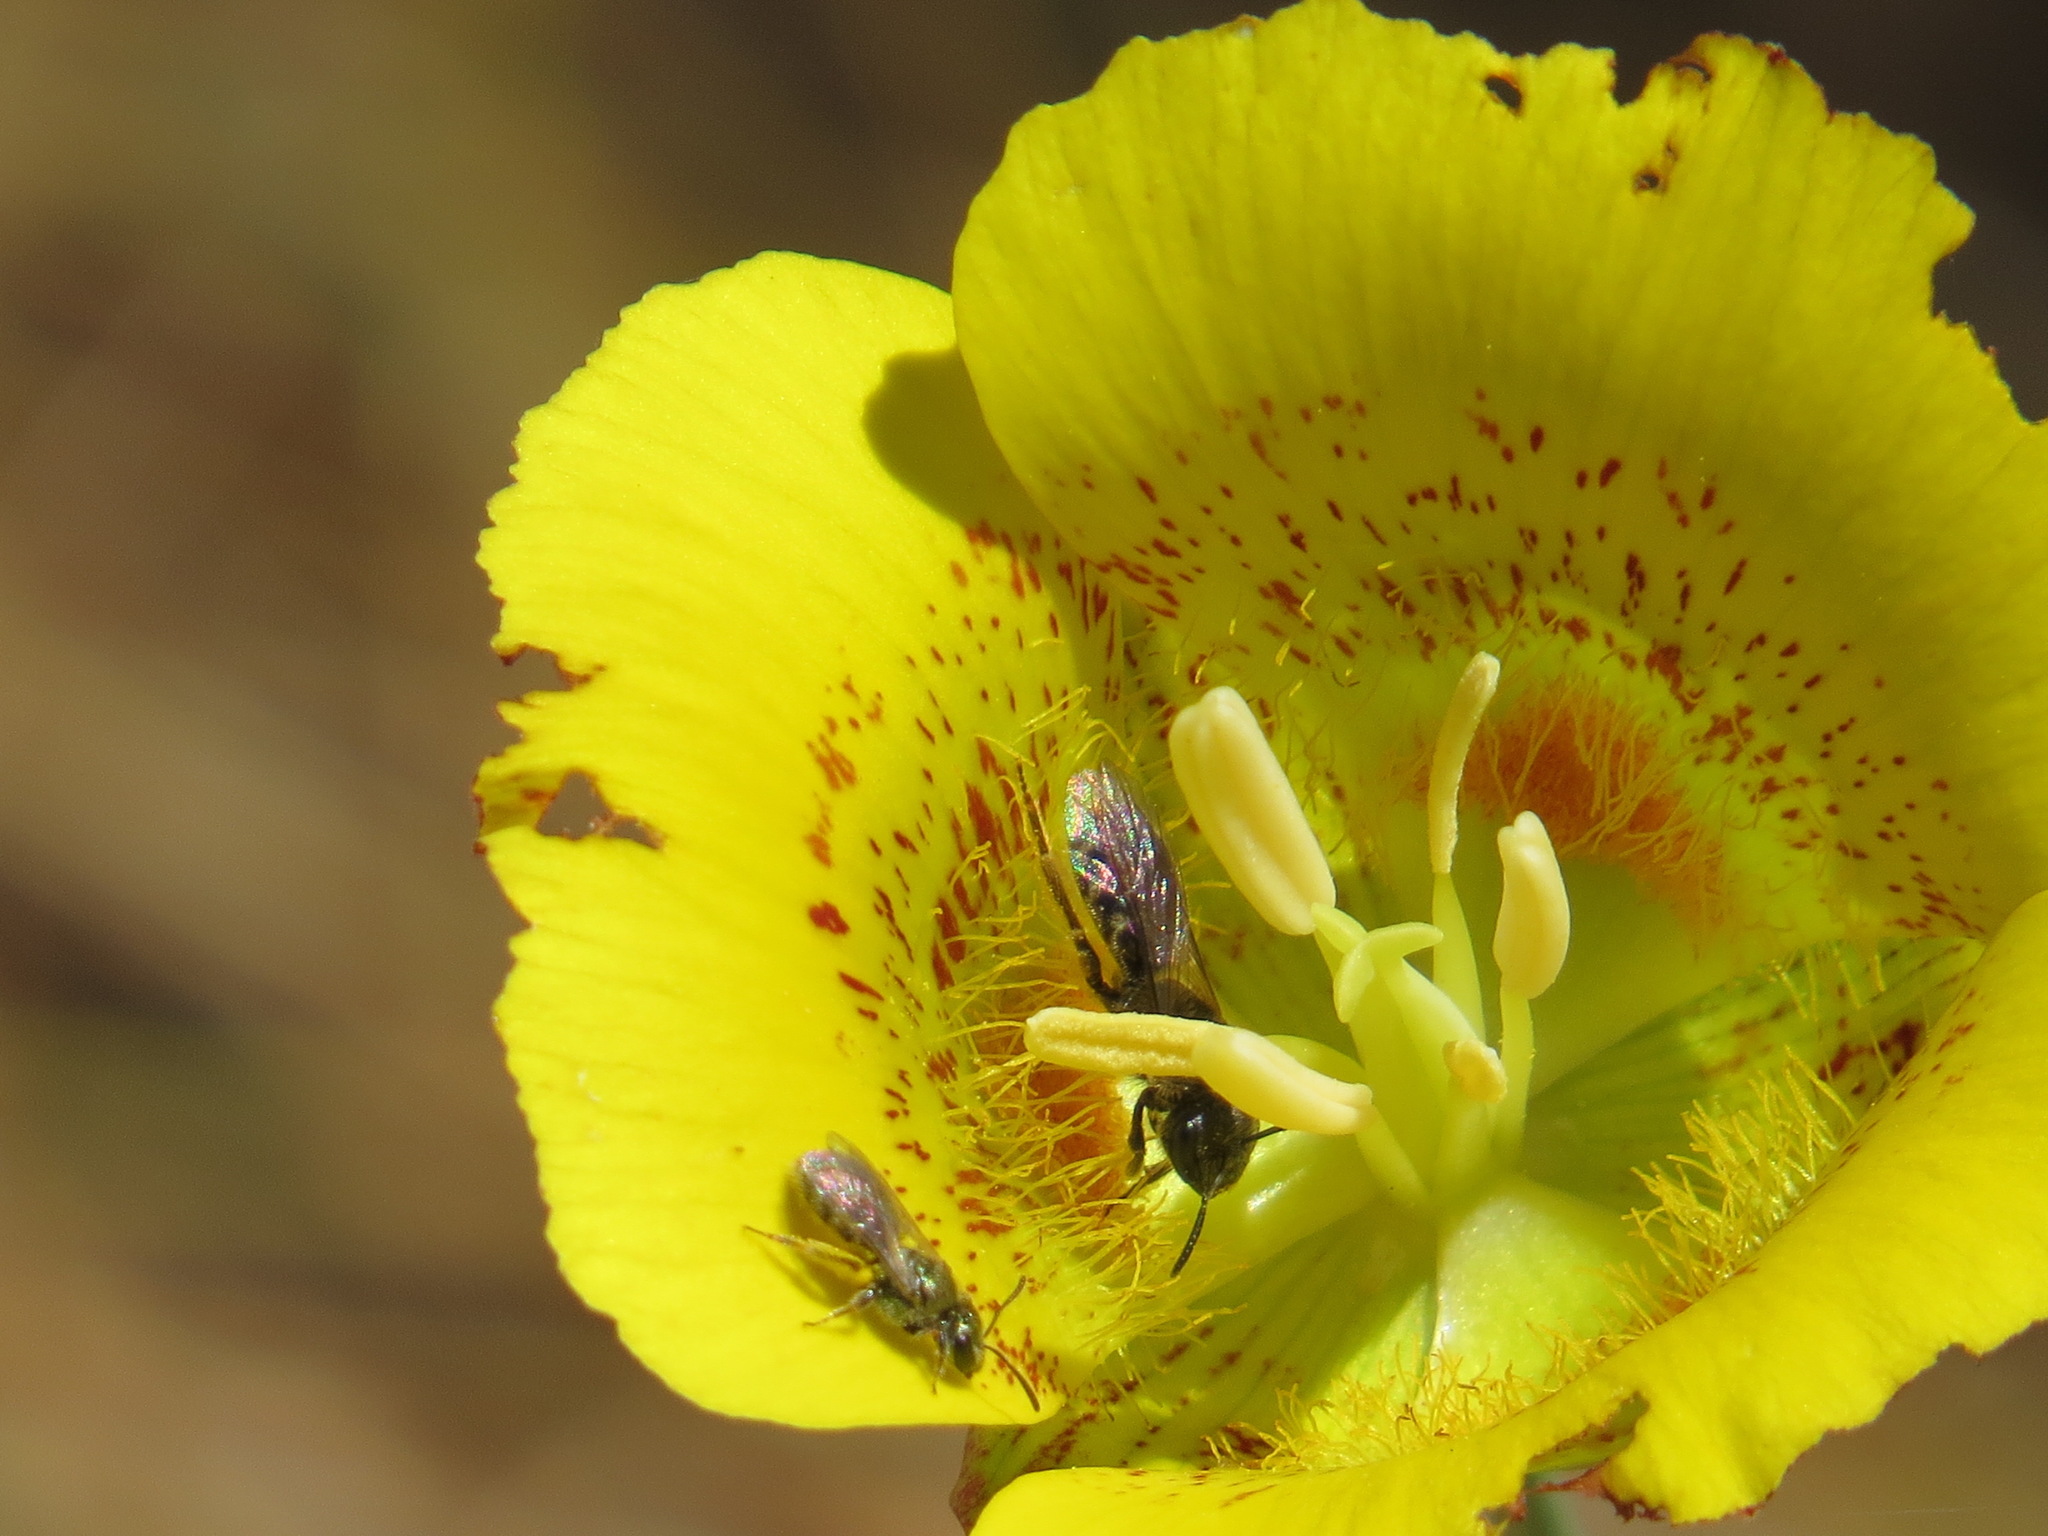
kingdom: Plantae
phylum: Tracheophyta
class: Liliopsida
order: Liliales
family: Liliaceae
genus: Calochortus
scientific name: Calochortus luteus
